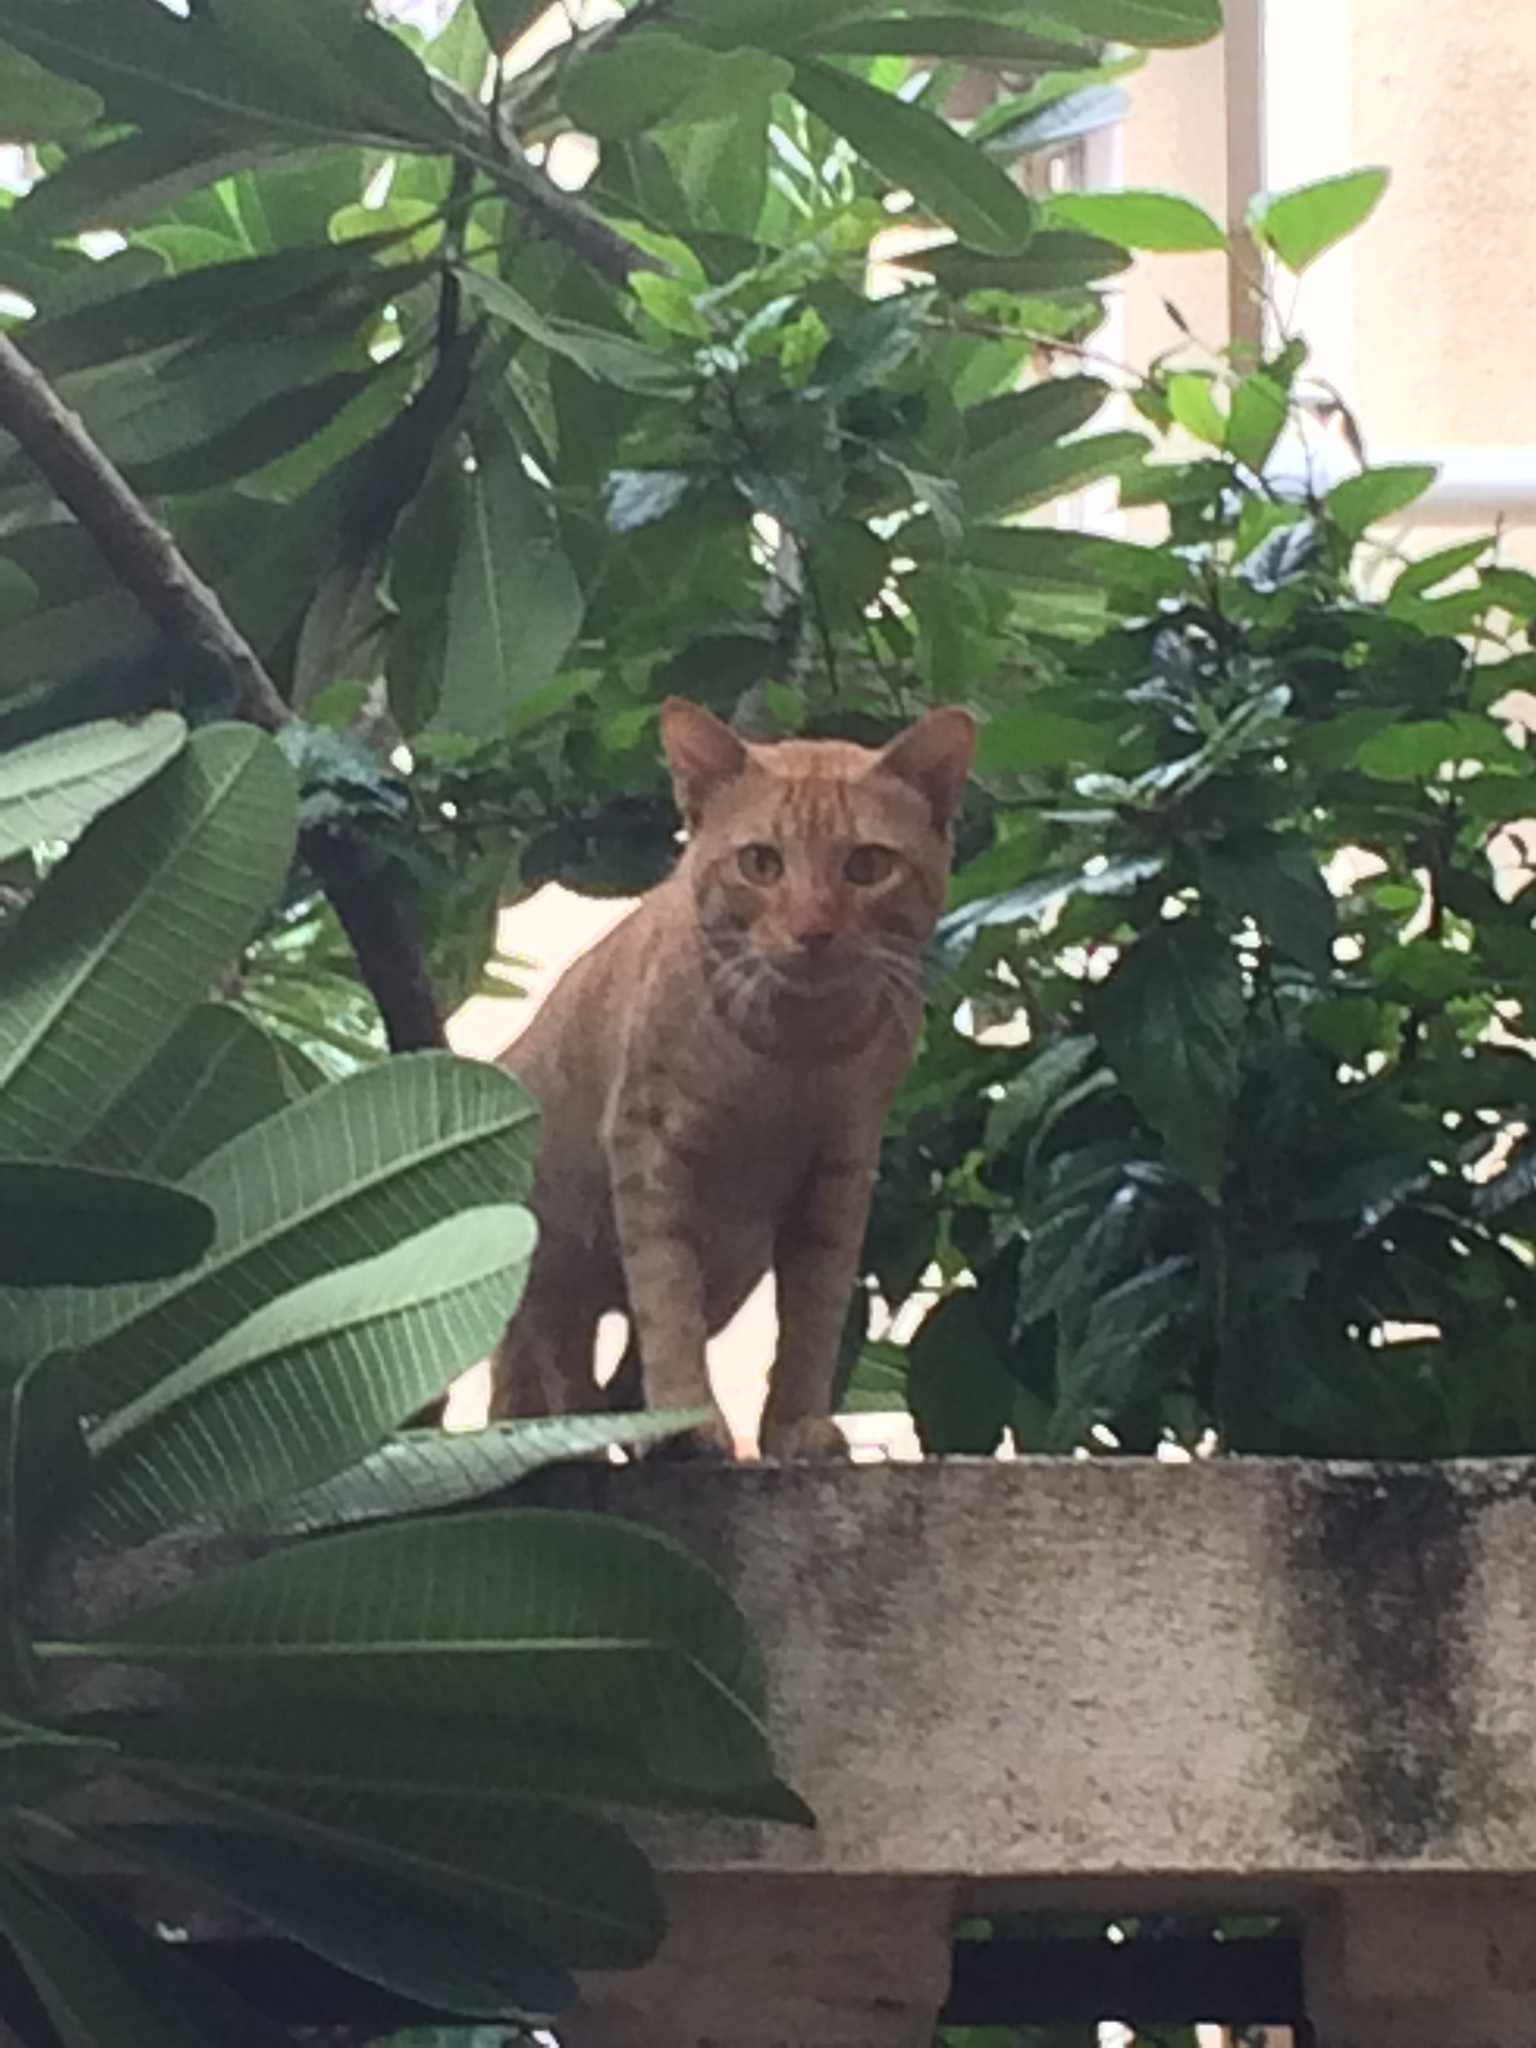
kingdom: Animalia
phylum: Chordata
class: Mammalia
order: Carnivora
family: Felidae
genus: Felis
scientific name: Felis catus
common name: Domestic cat
